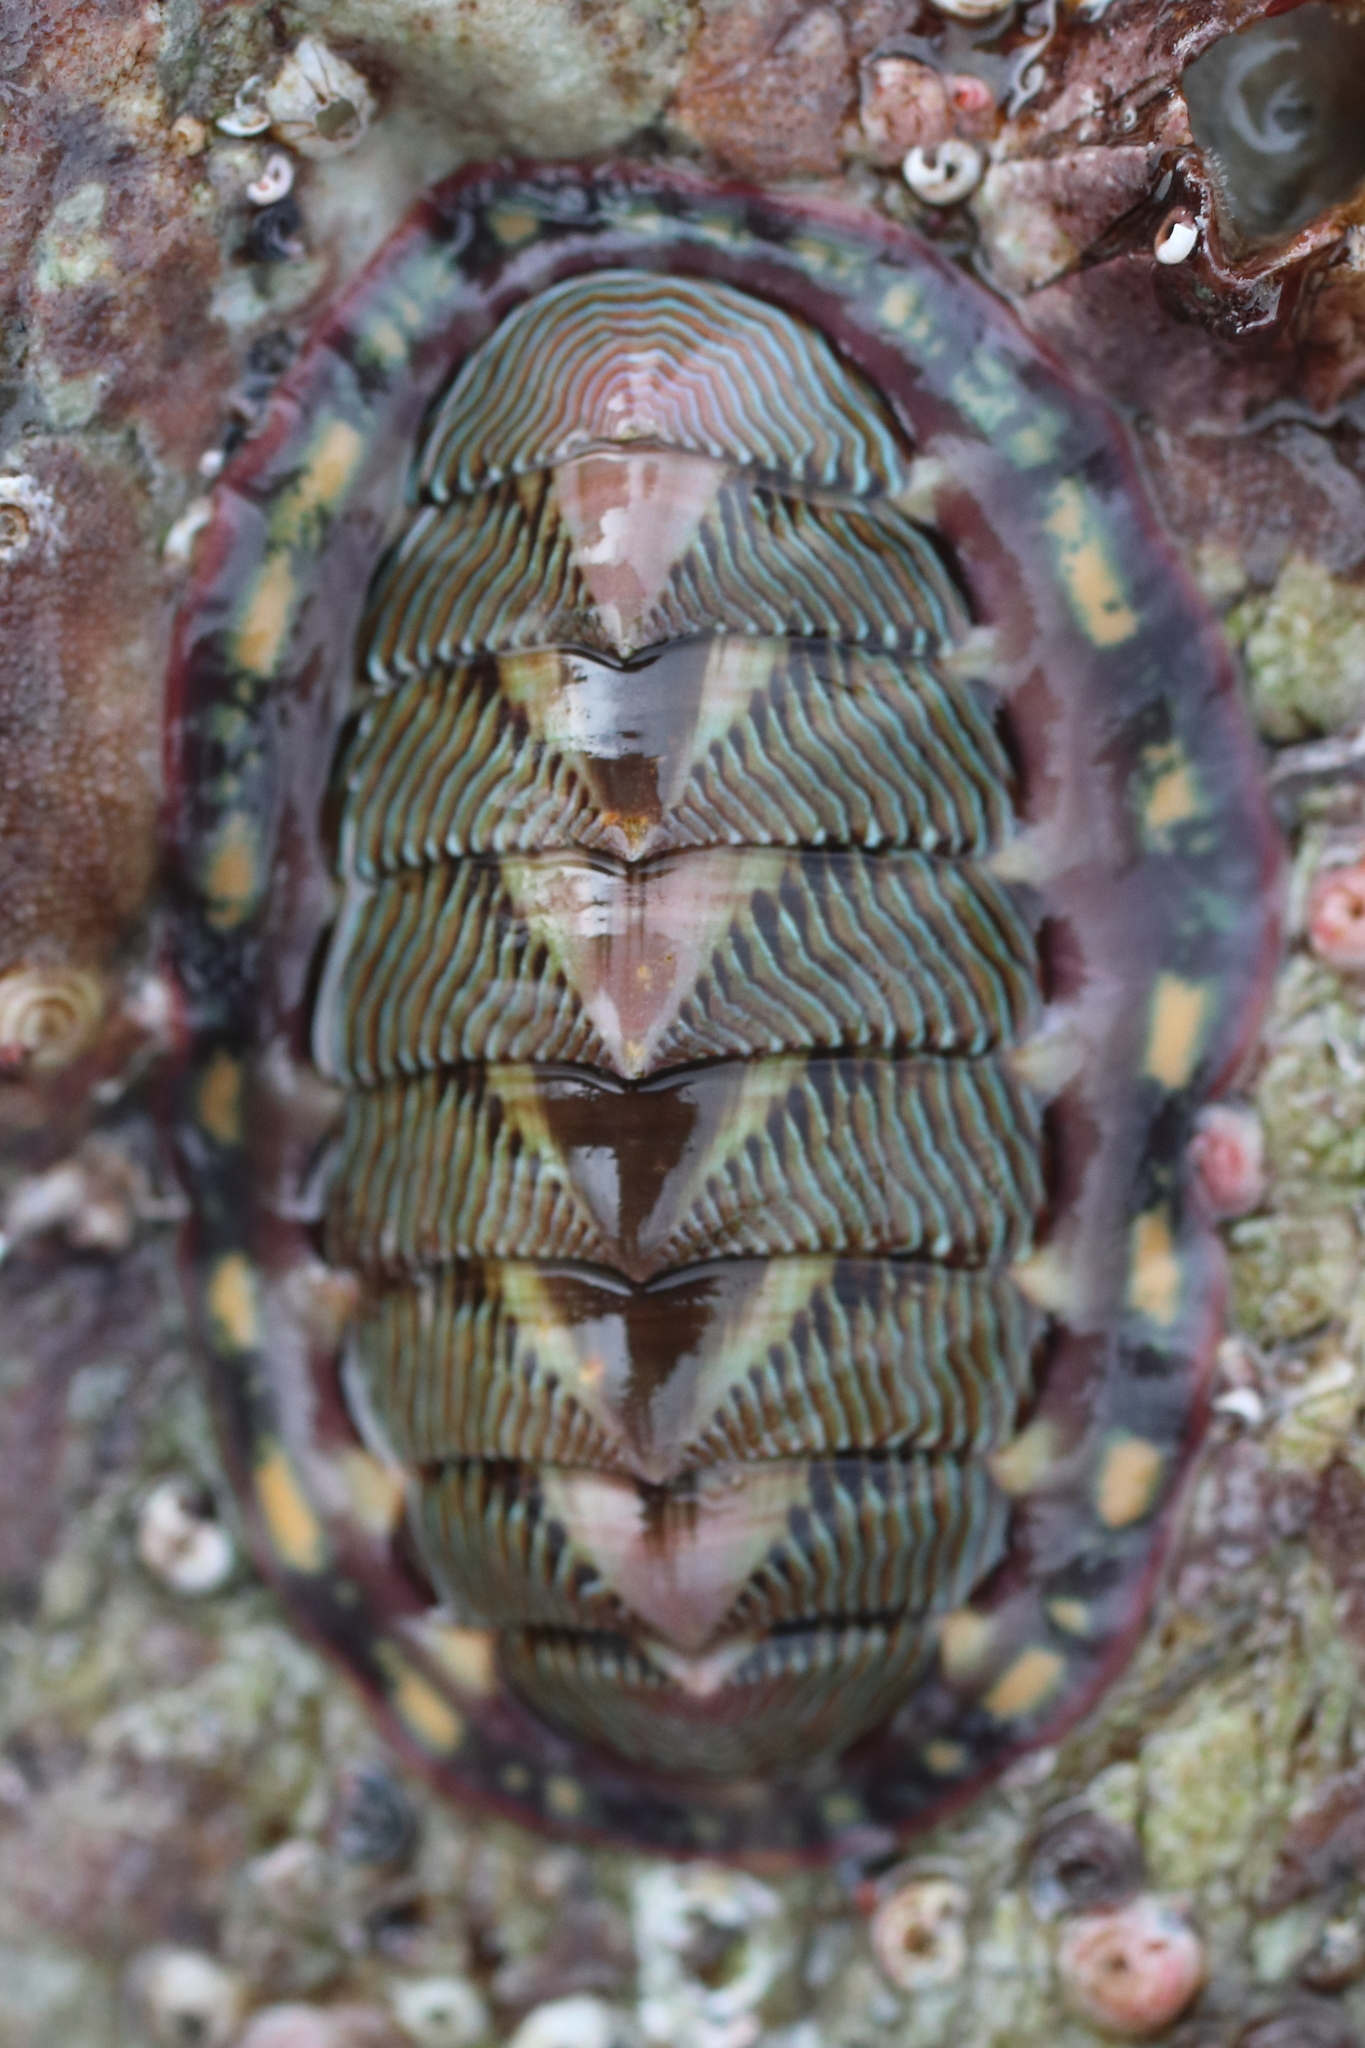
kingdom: Animalia
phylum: Mollusca
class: Polyplacophora
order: Chitonida
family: Tonicellidae
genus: Tonicella
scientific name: Tonicella lineata
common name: Lined chiton
